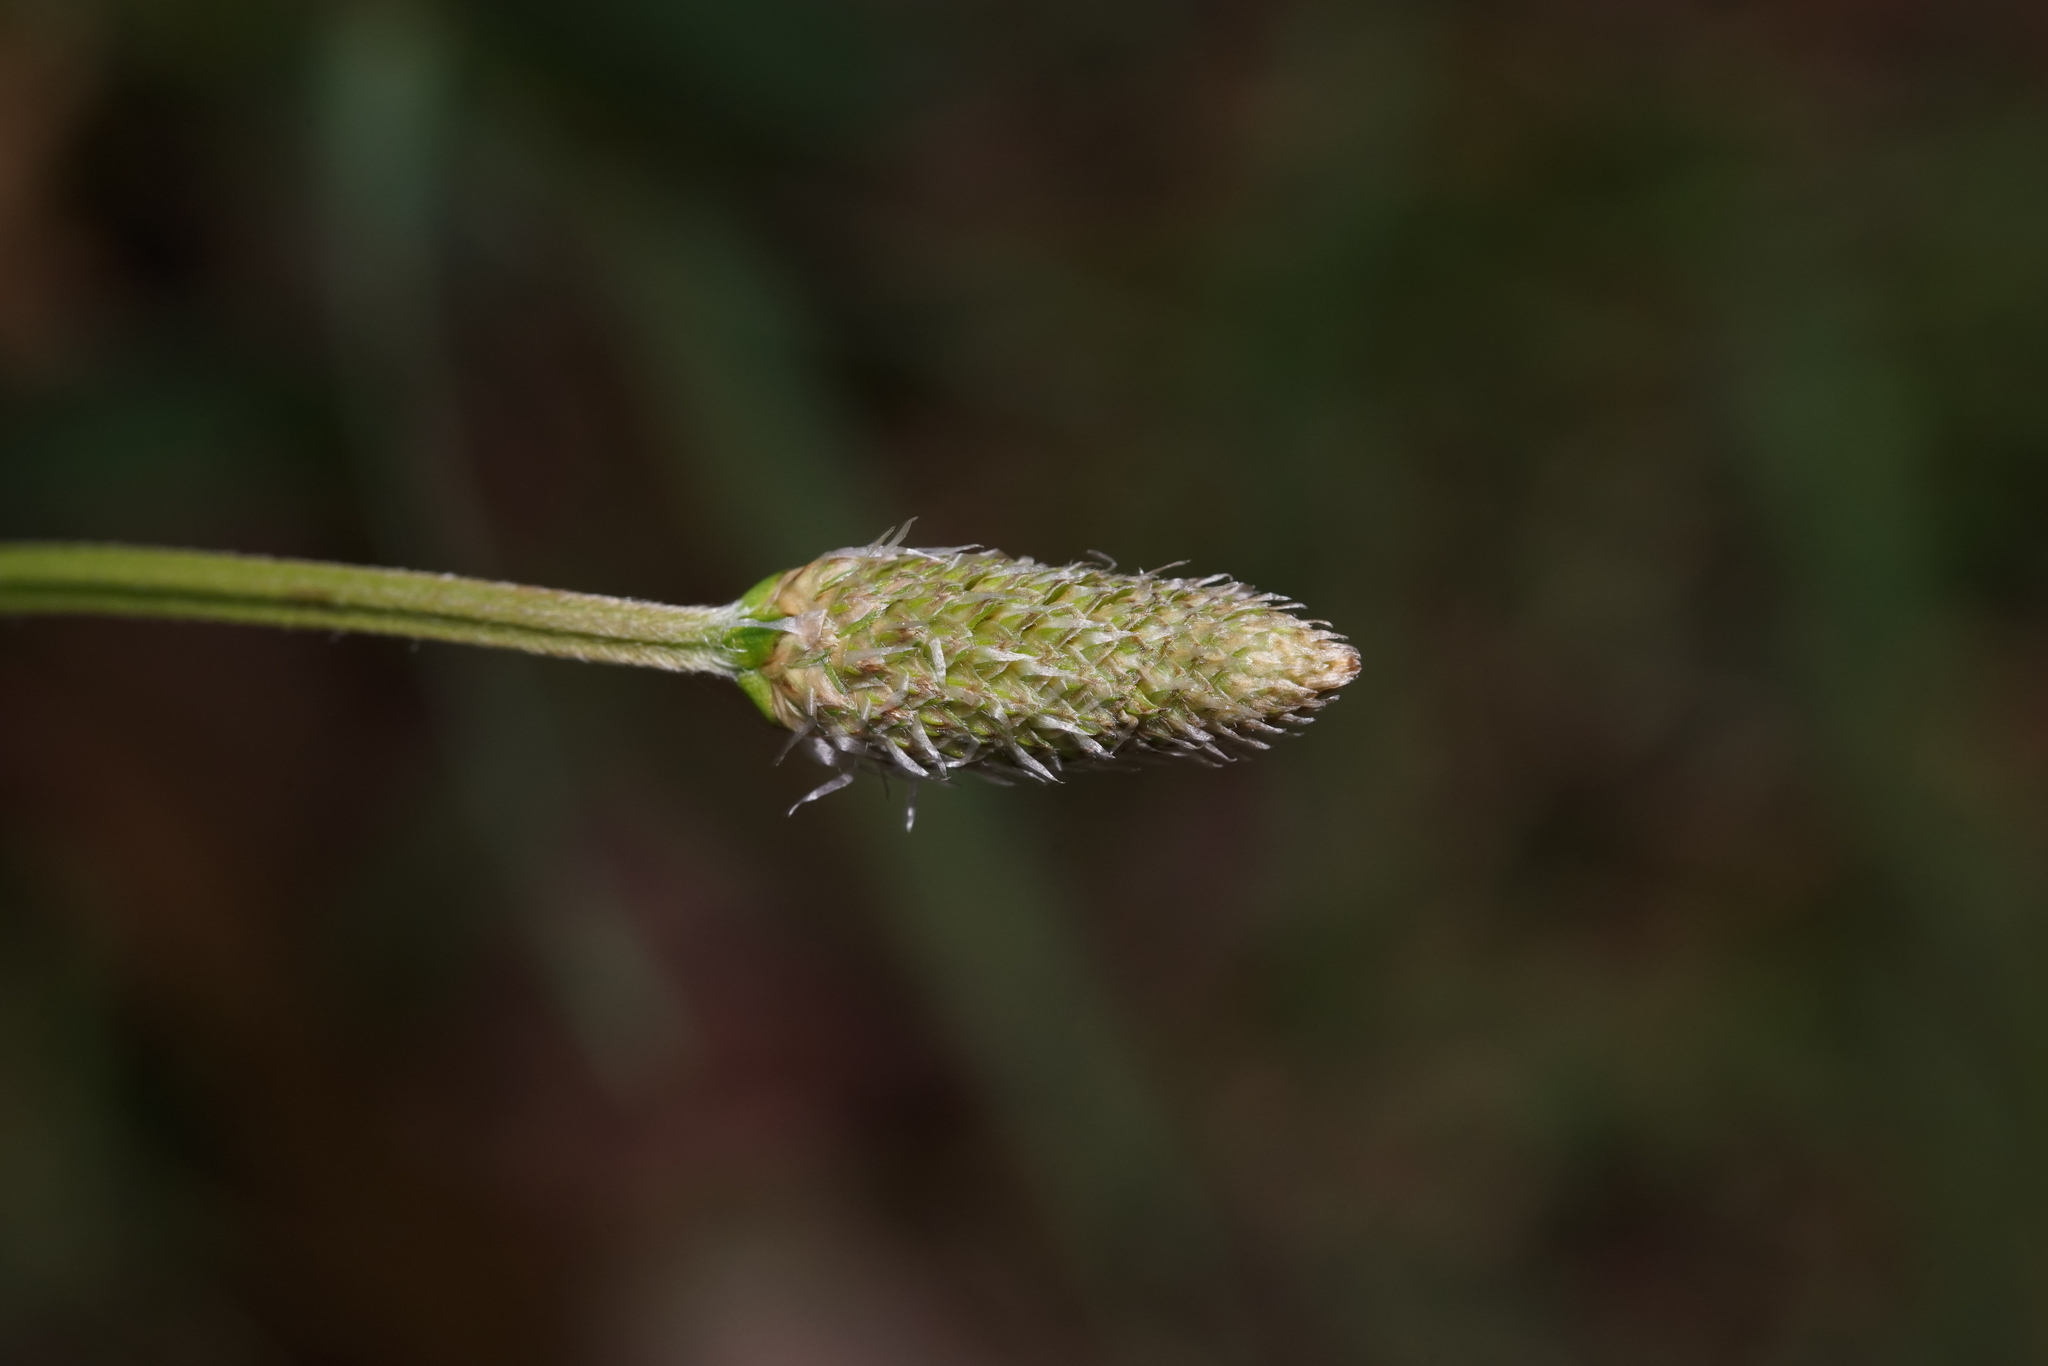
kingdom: Plantae
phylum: Tracheophyta
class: Magnoliopsida
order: Lamiales
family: Plantaginaceae
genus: Plantago
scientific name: Plantago lanceolata
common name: Ribwort plantain
